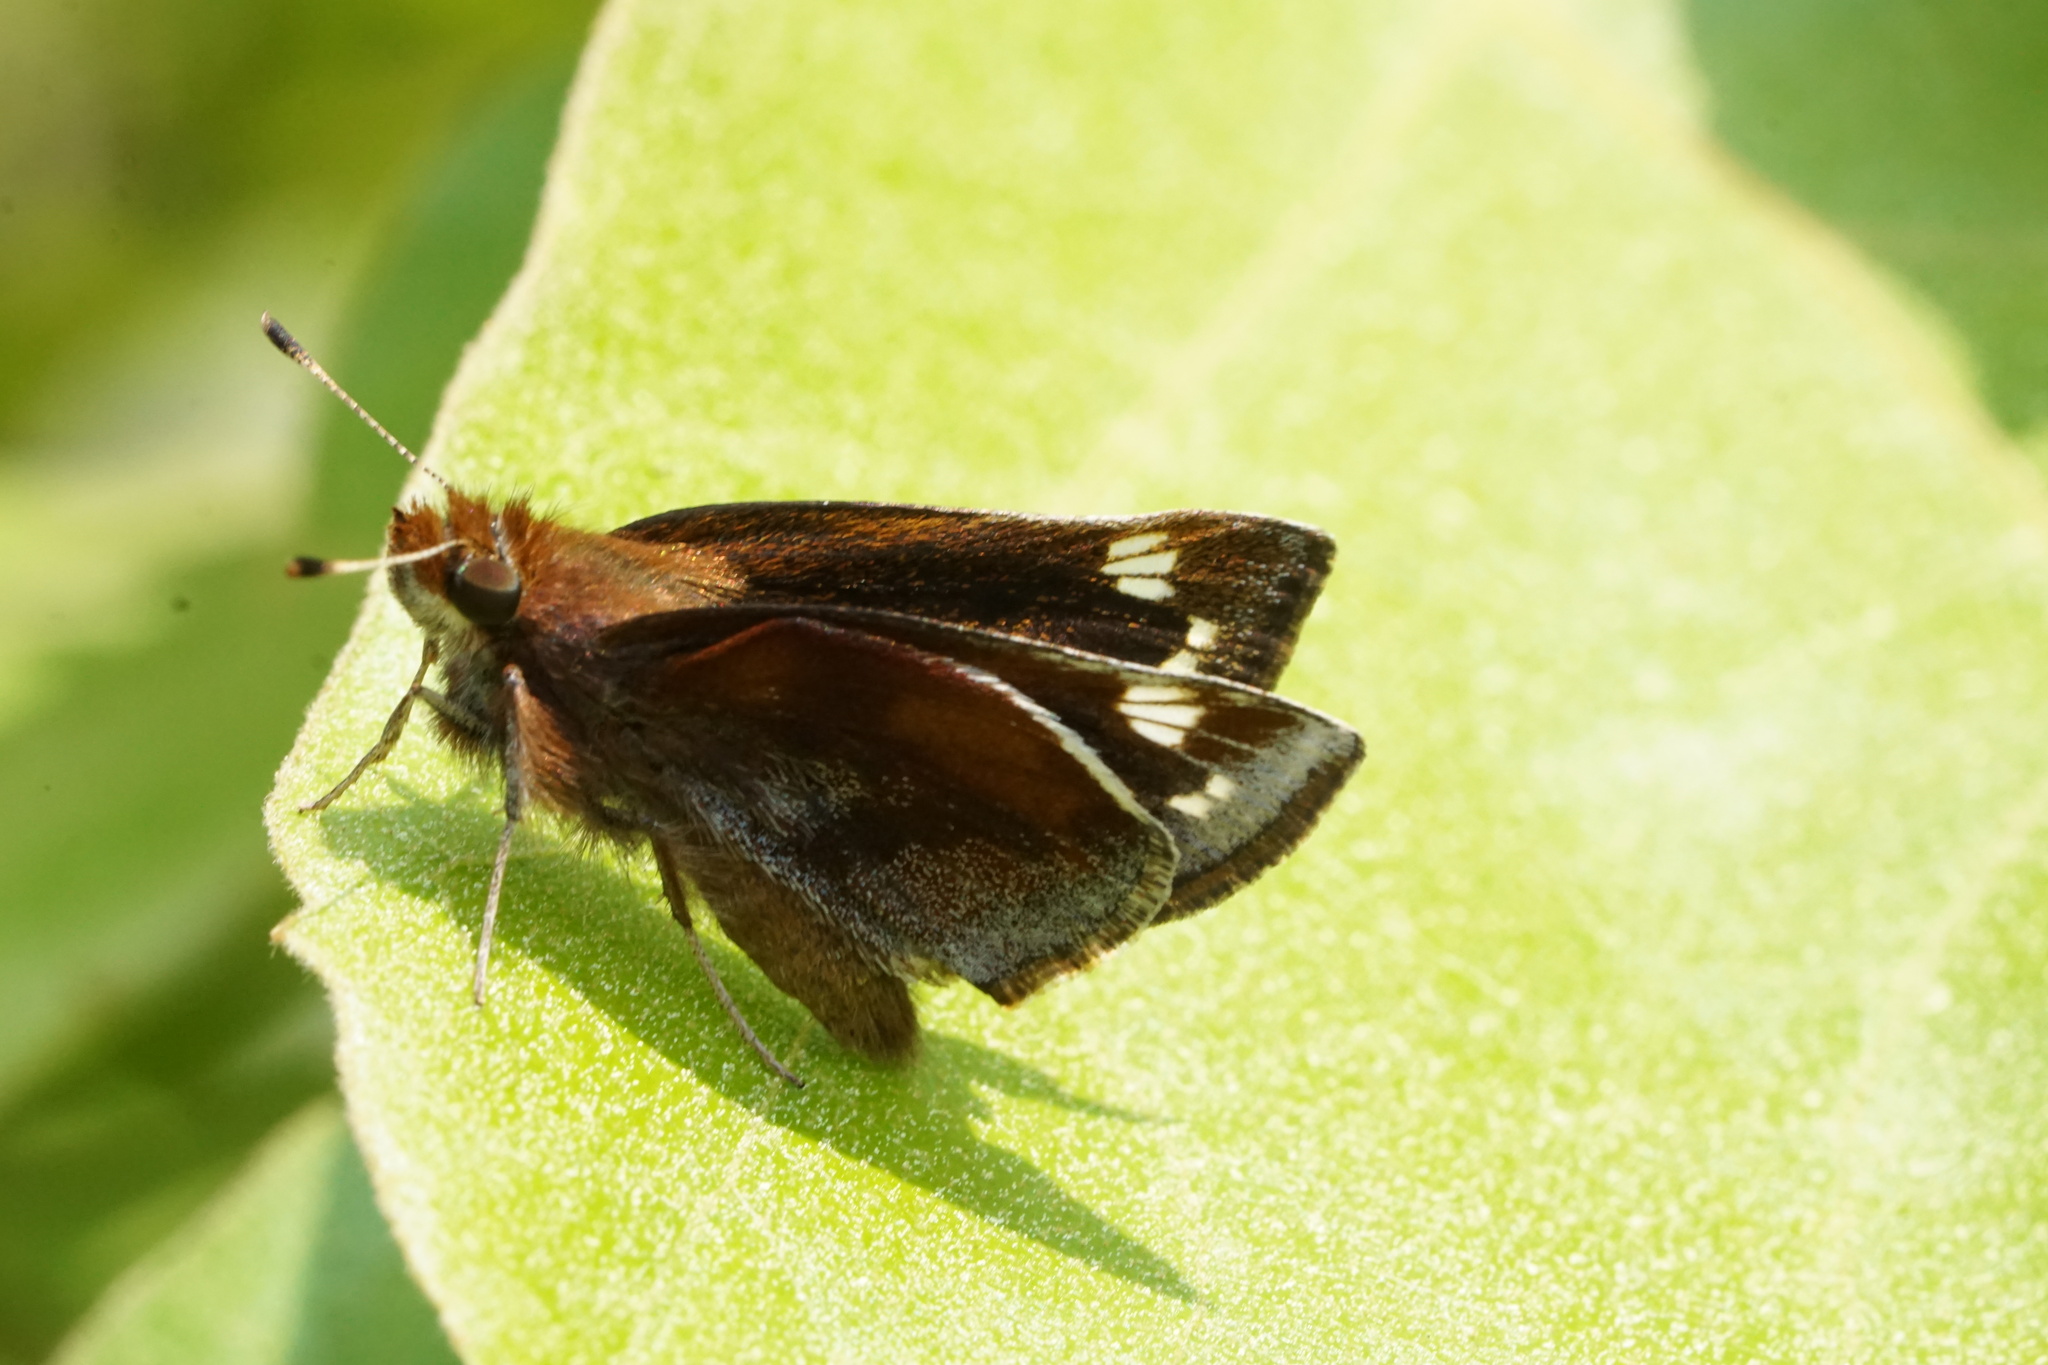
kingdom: Animalia
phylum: Arthropoda
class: Insecta
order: Lepidoptera
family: Hesperiidae
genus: Lon
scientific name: Lon zabulon
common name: Zabulon skipper
